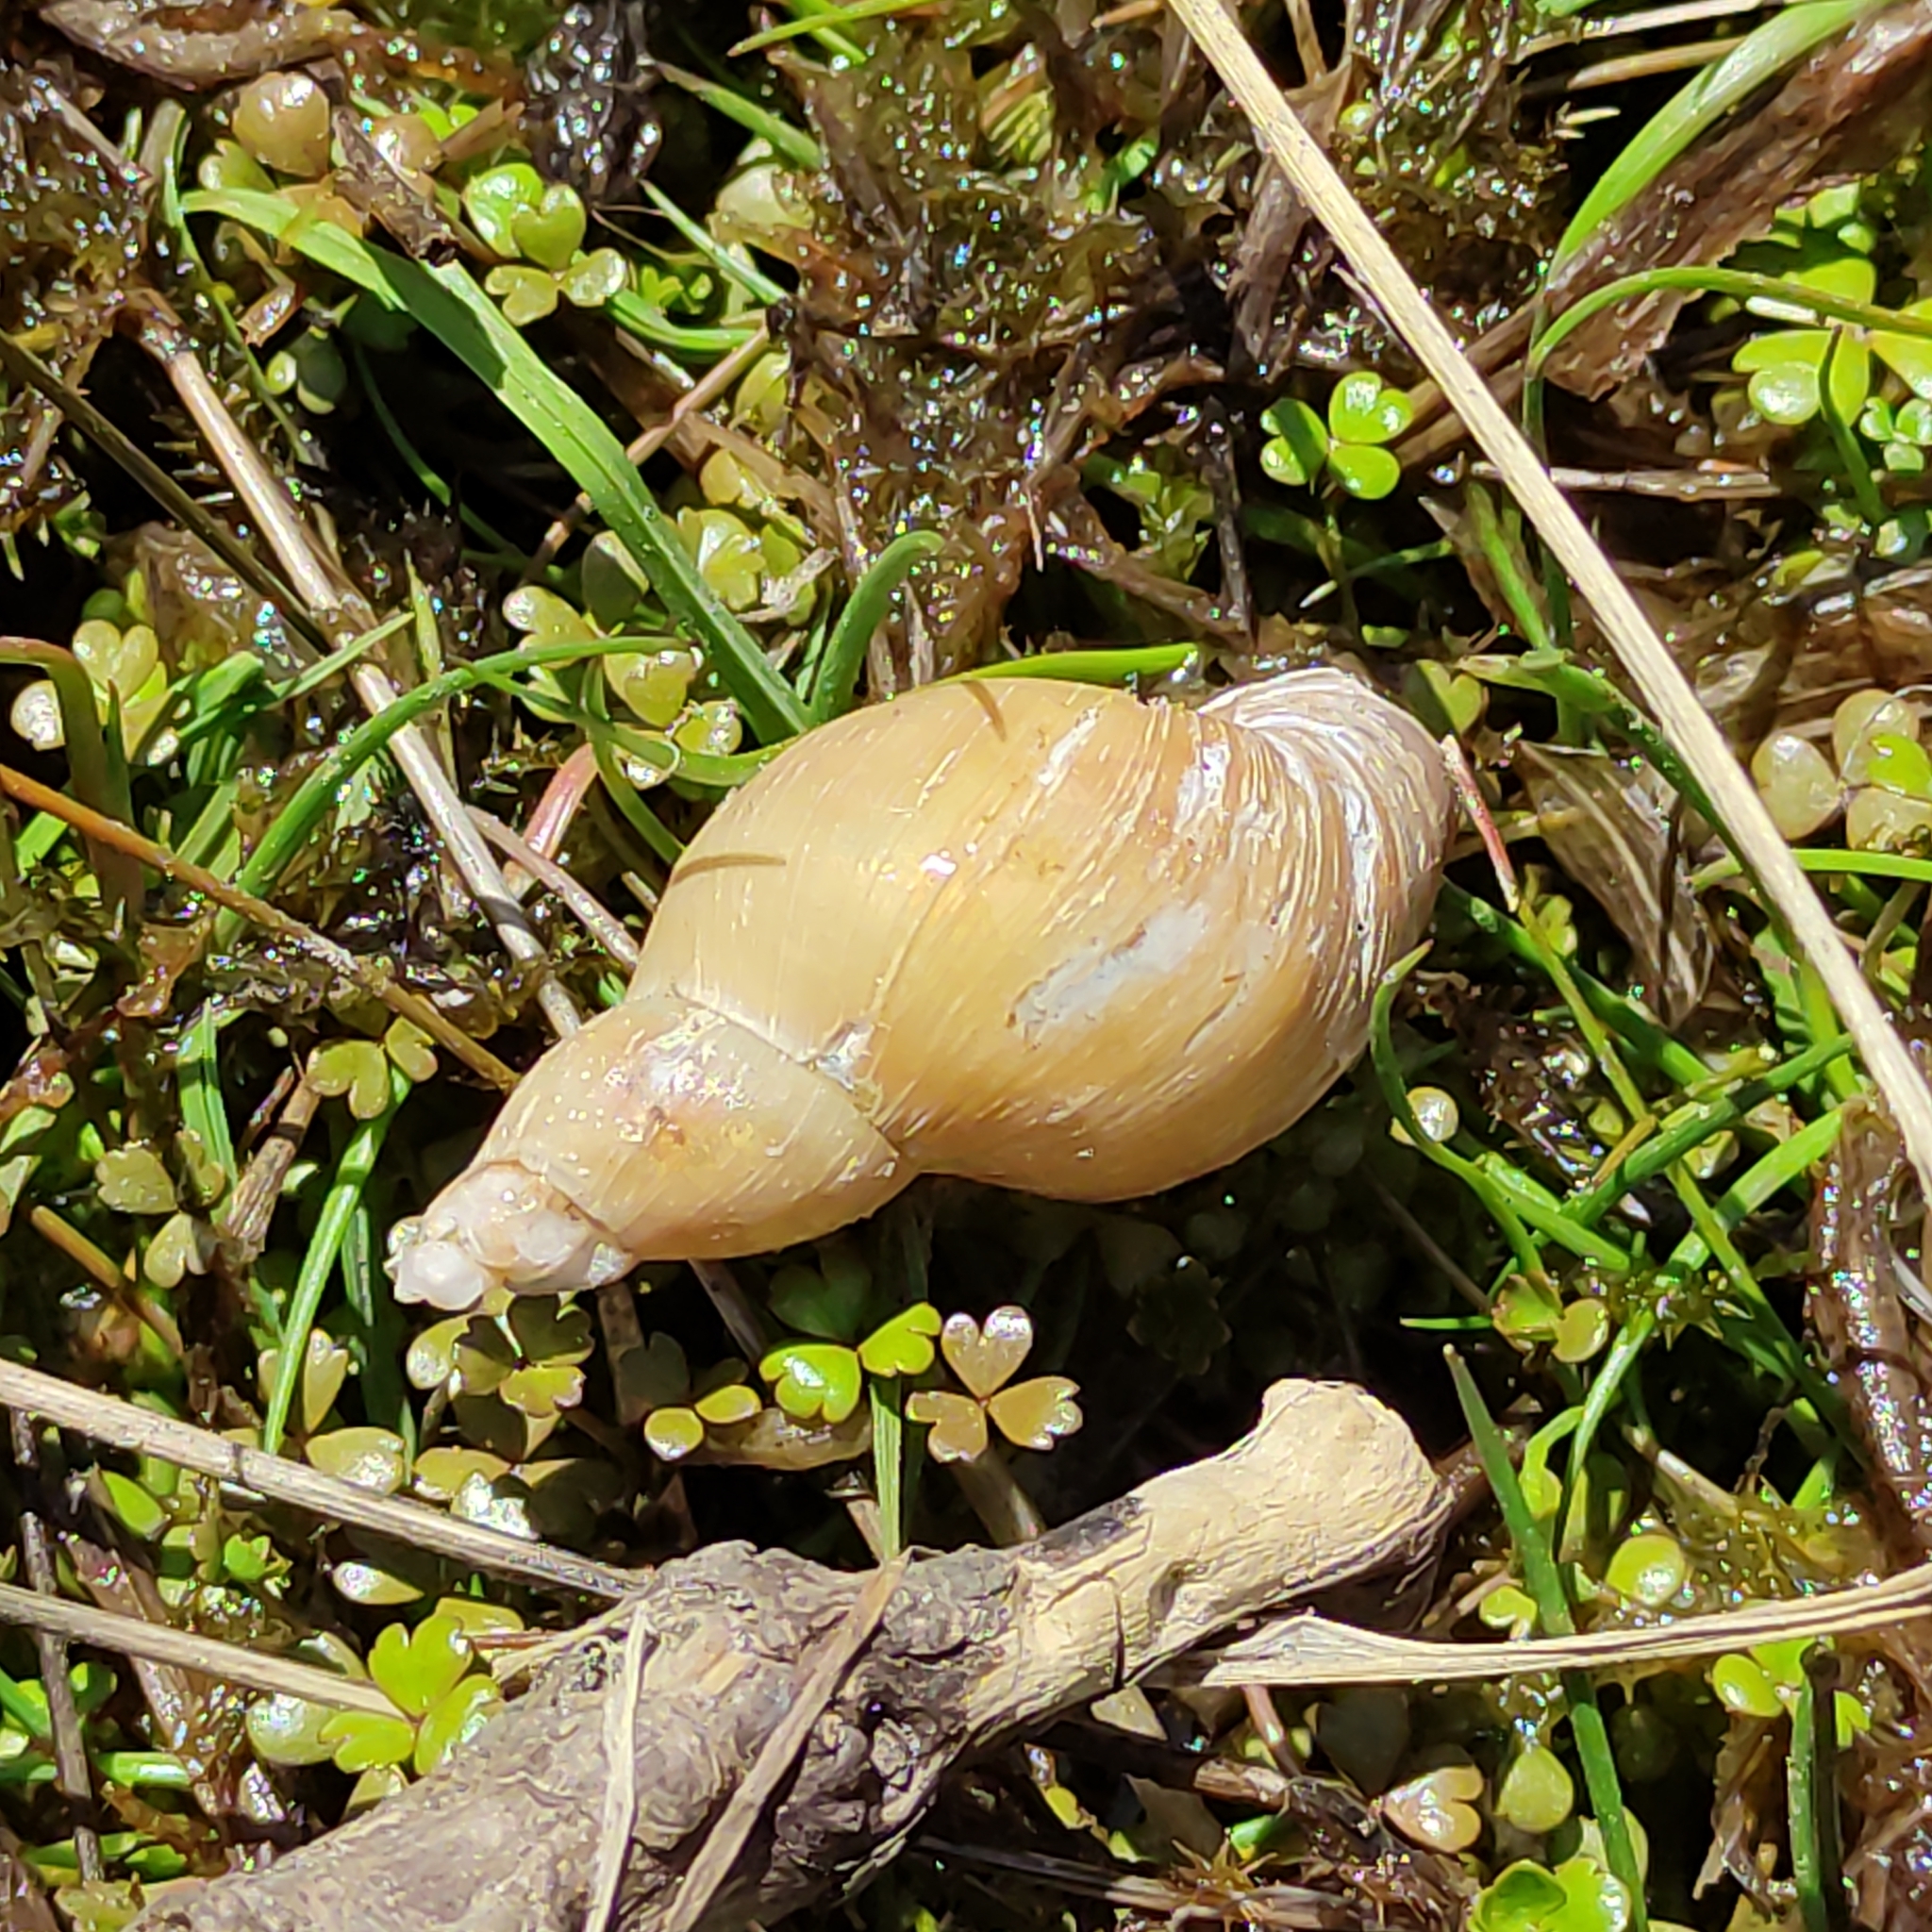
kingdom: Animalia
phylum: Mollusca
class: Gastropoda
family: Lymnaeidae
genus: Lymnaea
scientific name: Lymnaea stagnalis
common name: Great pond snail
